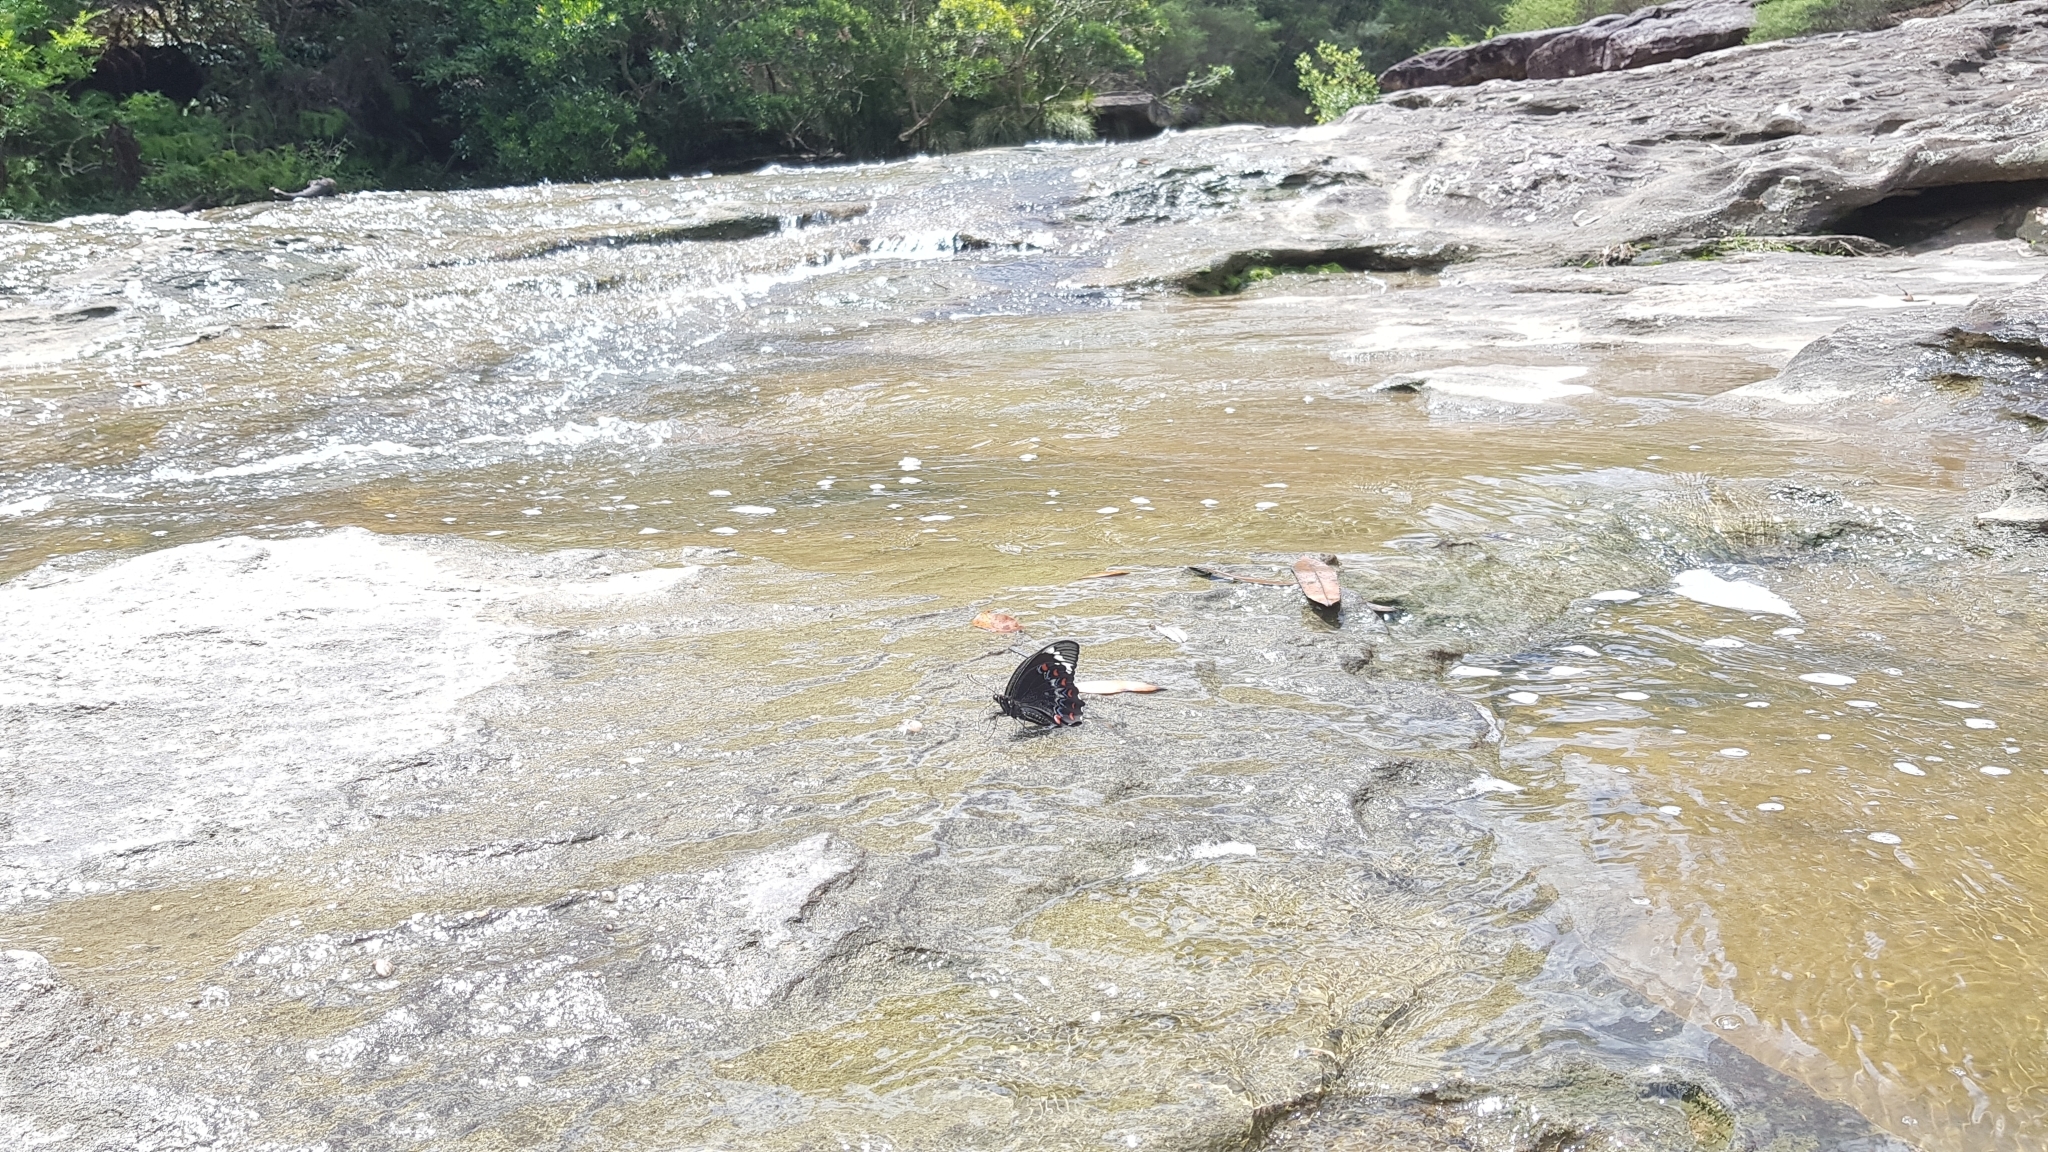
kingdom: Animalia
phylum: Arthropoda
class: Insecta
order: Lepidoptera
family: Papilionidae
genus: Papilio
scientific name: Papilio aegeus
